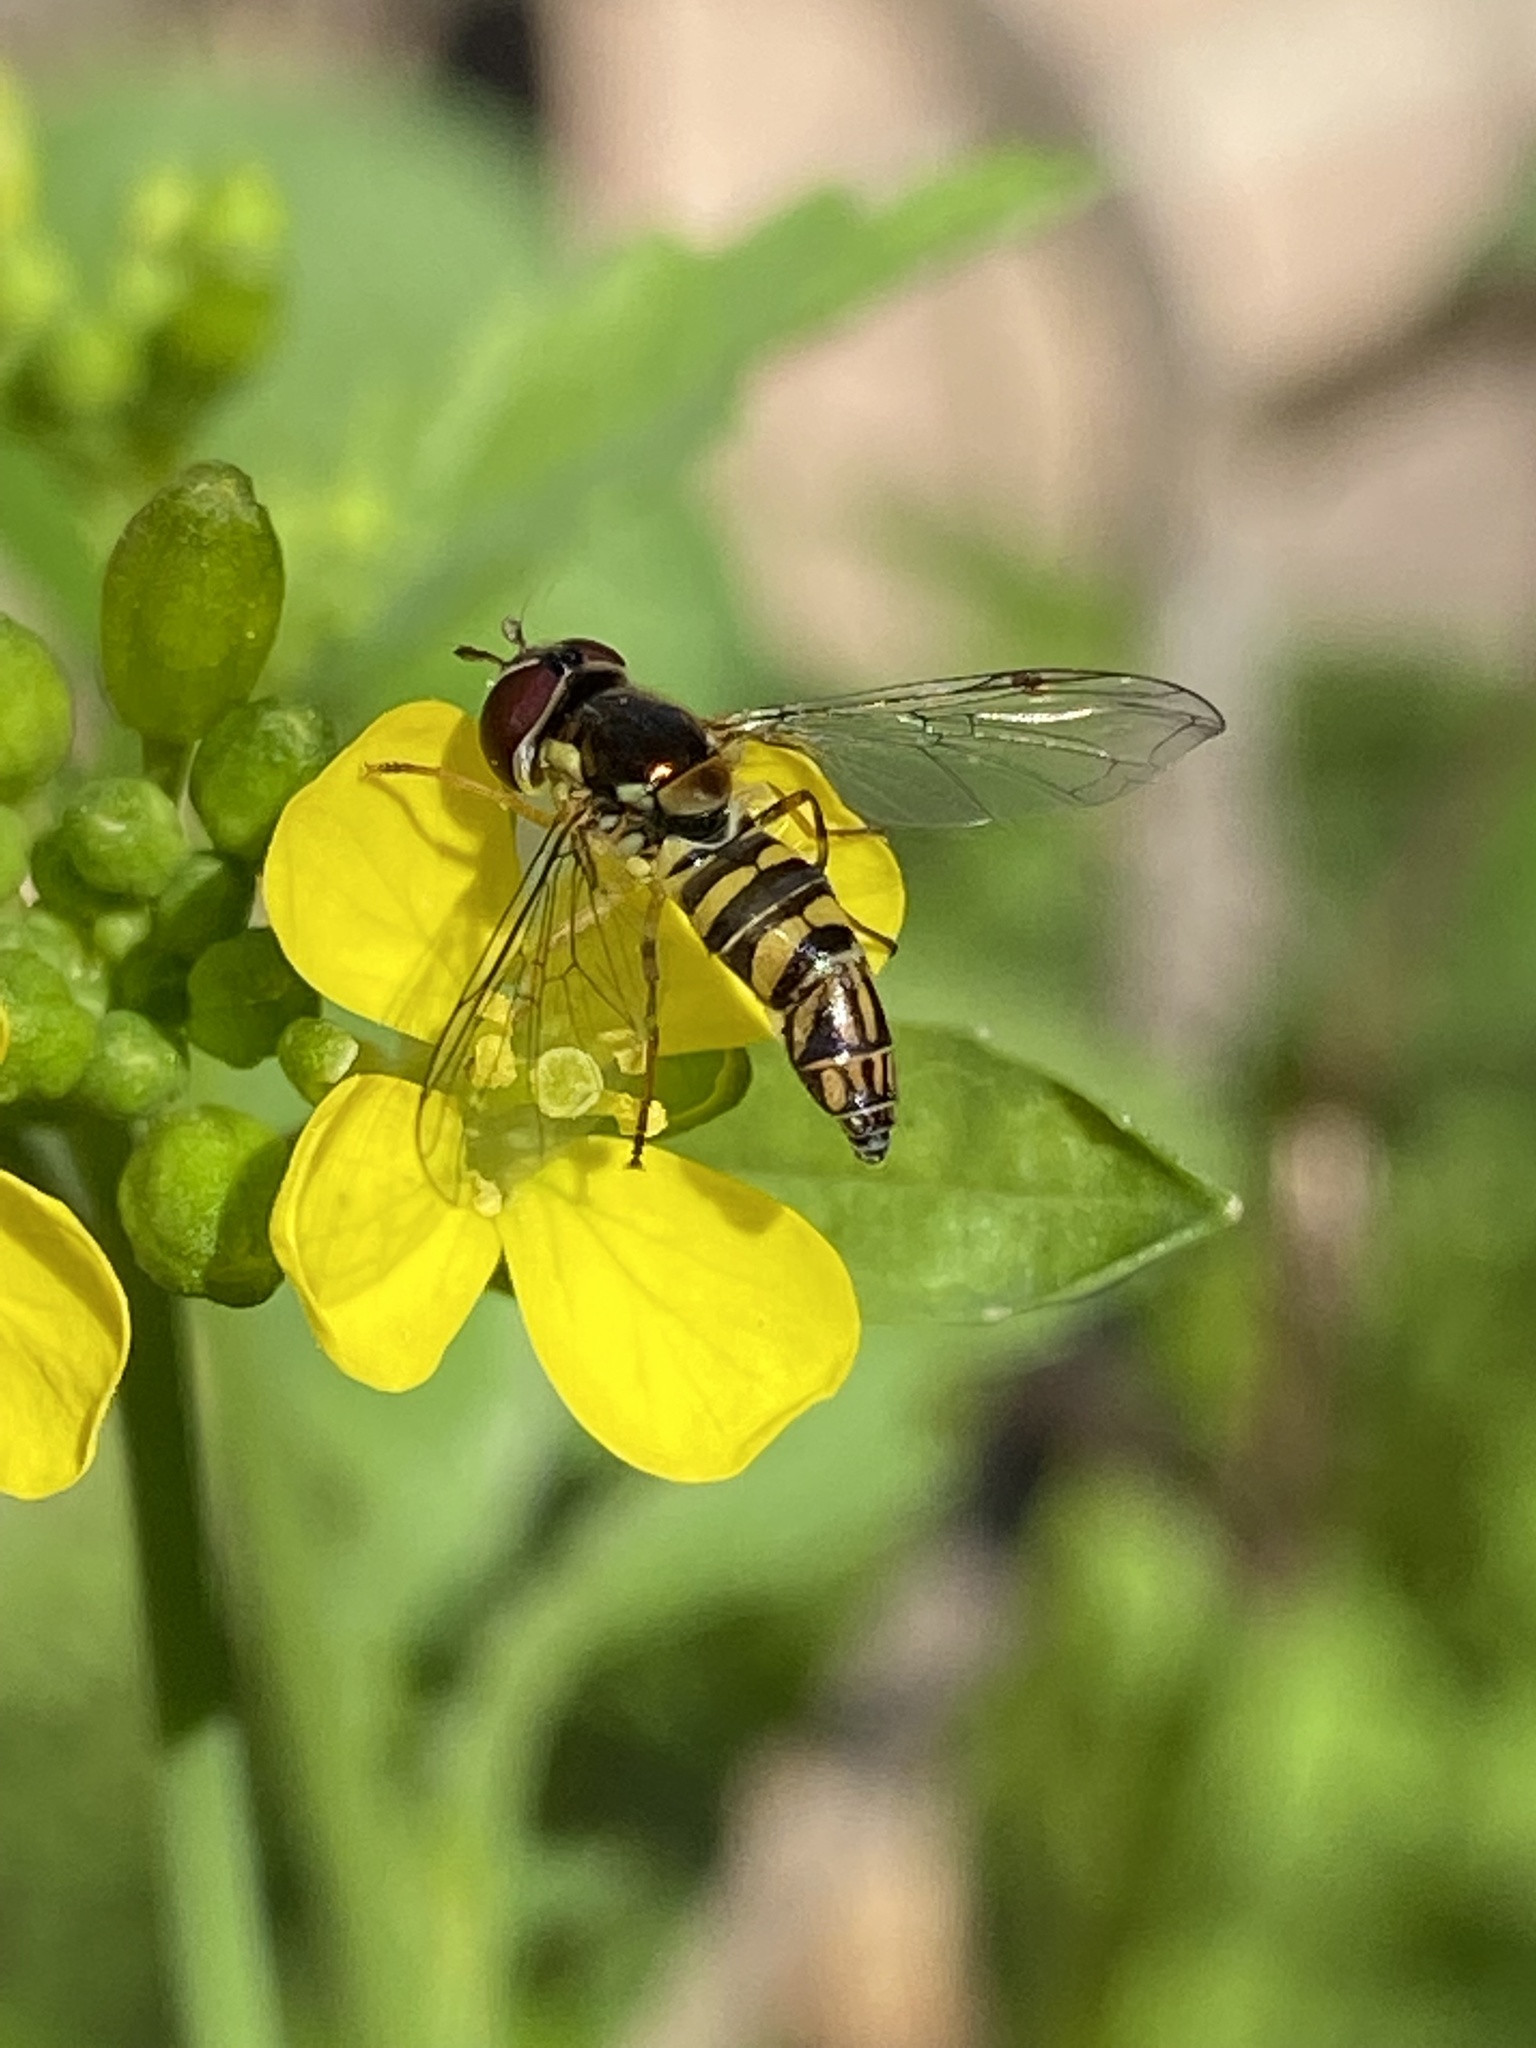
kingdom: Animalia
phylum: Arthropoda
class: Insecta
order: Diptera
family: Syrphidae
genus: Allograpta
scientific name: Allograpta obliqua
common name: Common oblique syrphid
